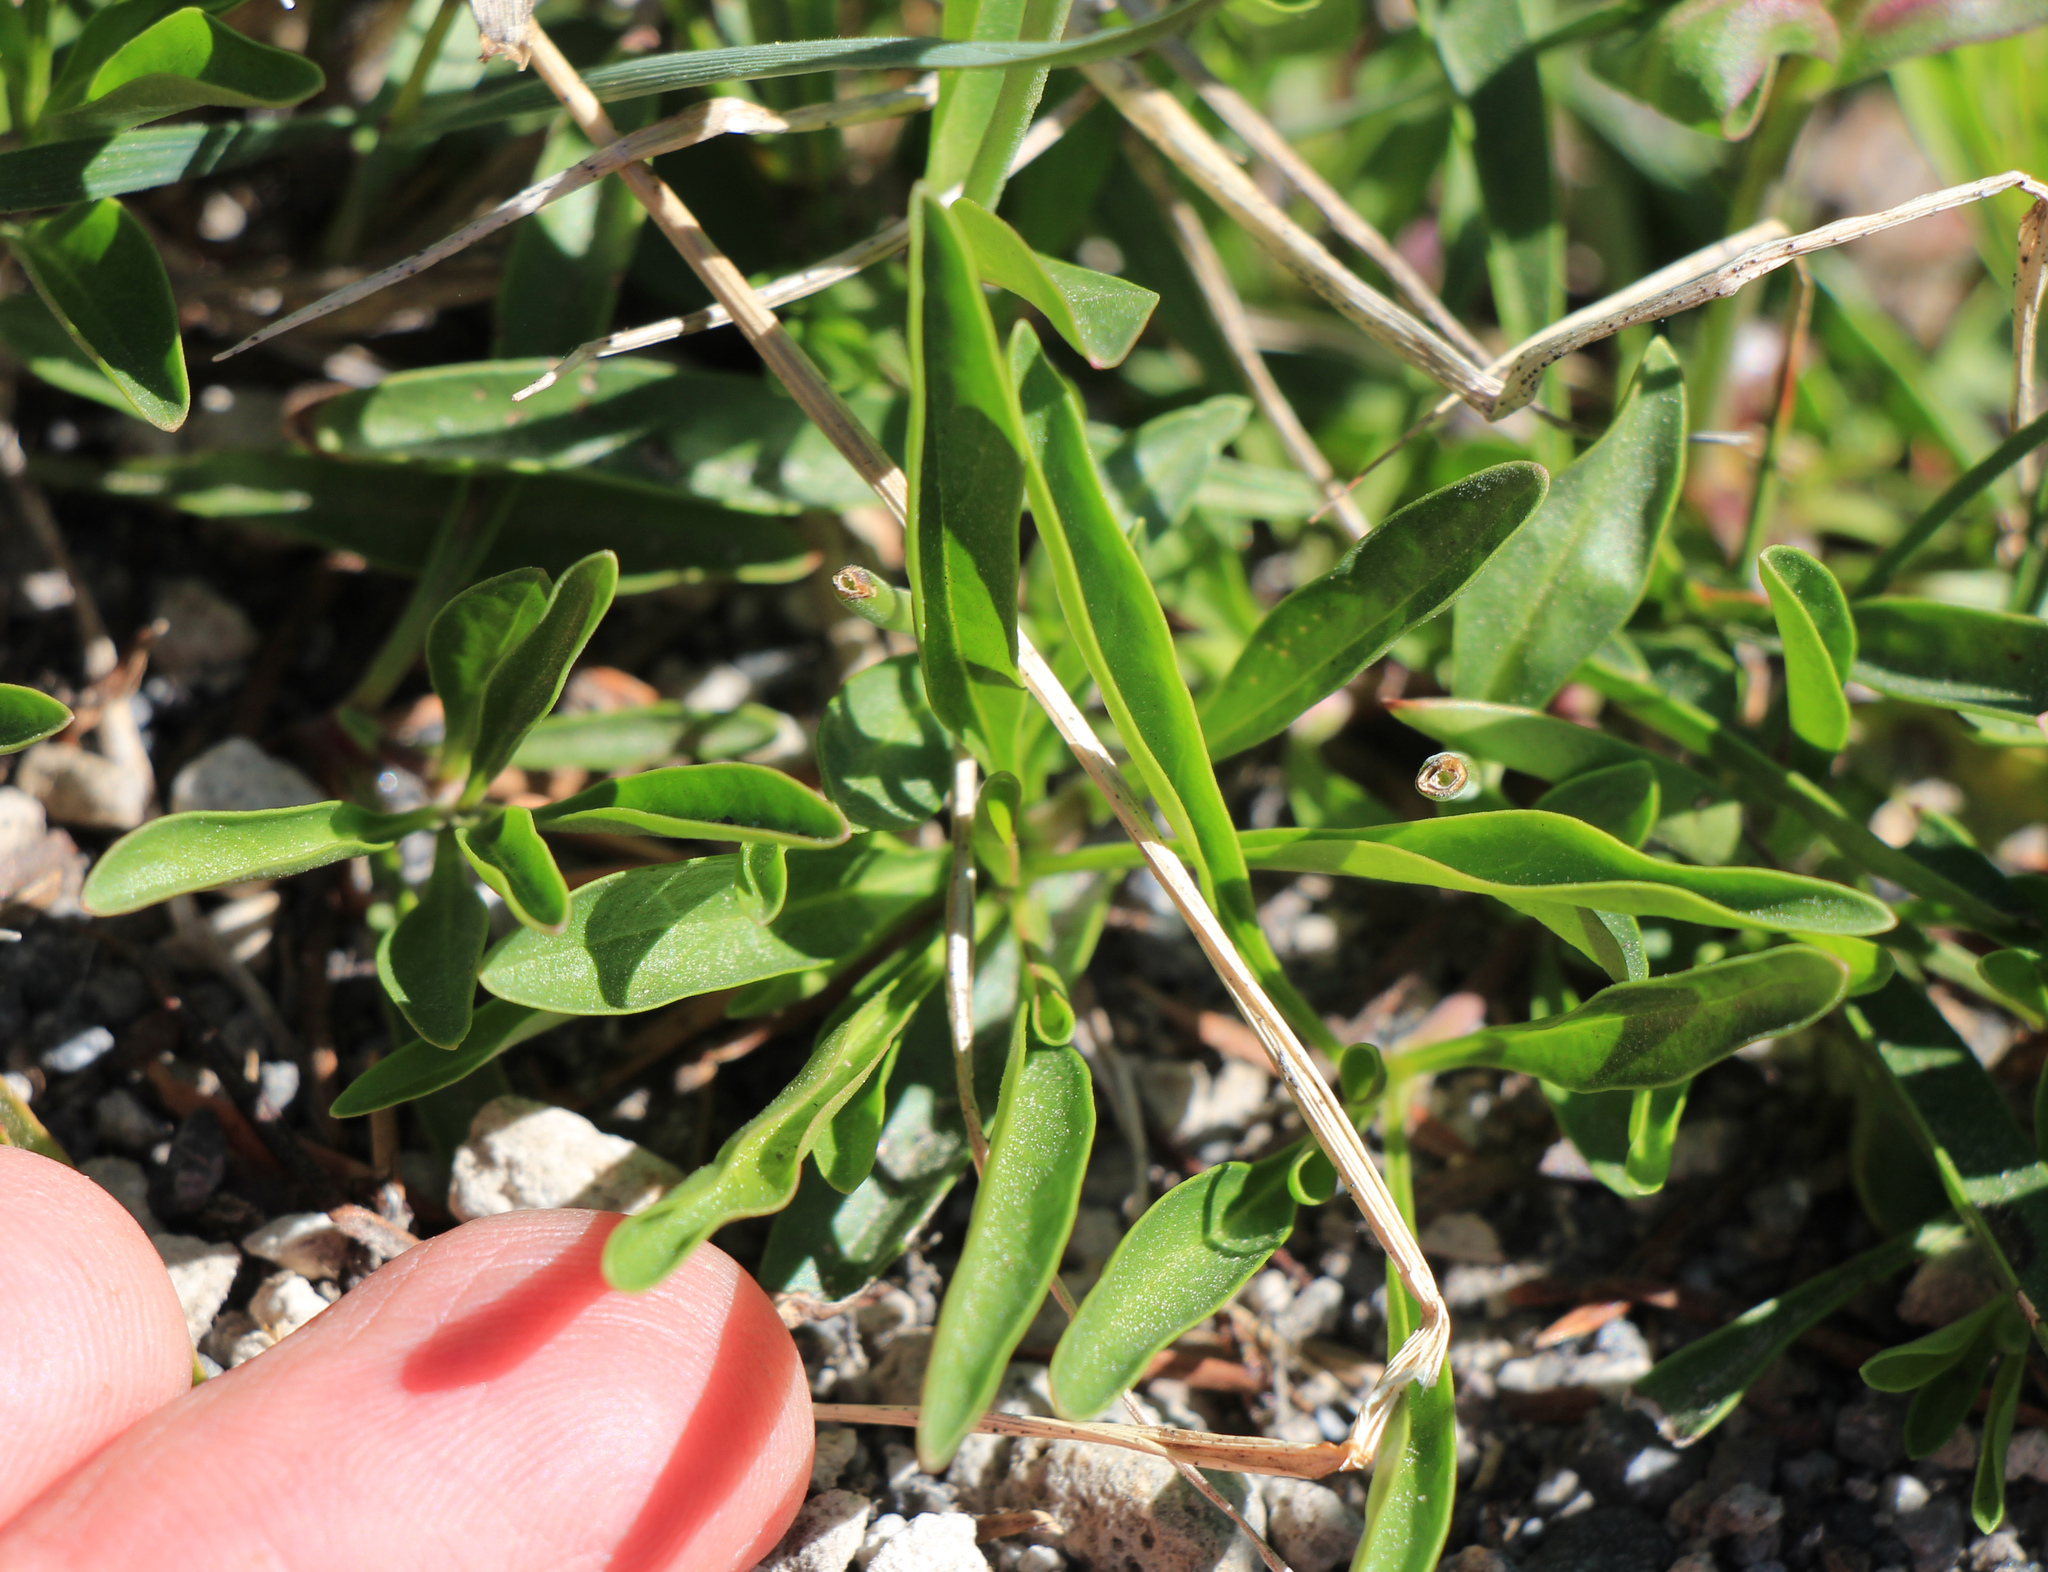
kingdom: Plantae
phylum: Tracheophyta
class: Magnoliopsida
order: Lamiales
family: Plantaginaceae
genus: Penstemon
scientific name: Penstemon procerus
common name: Small-flower penstemon
